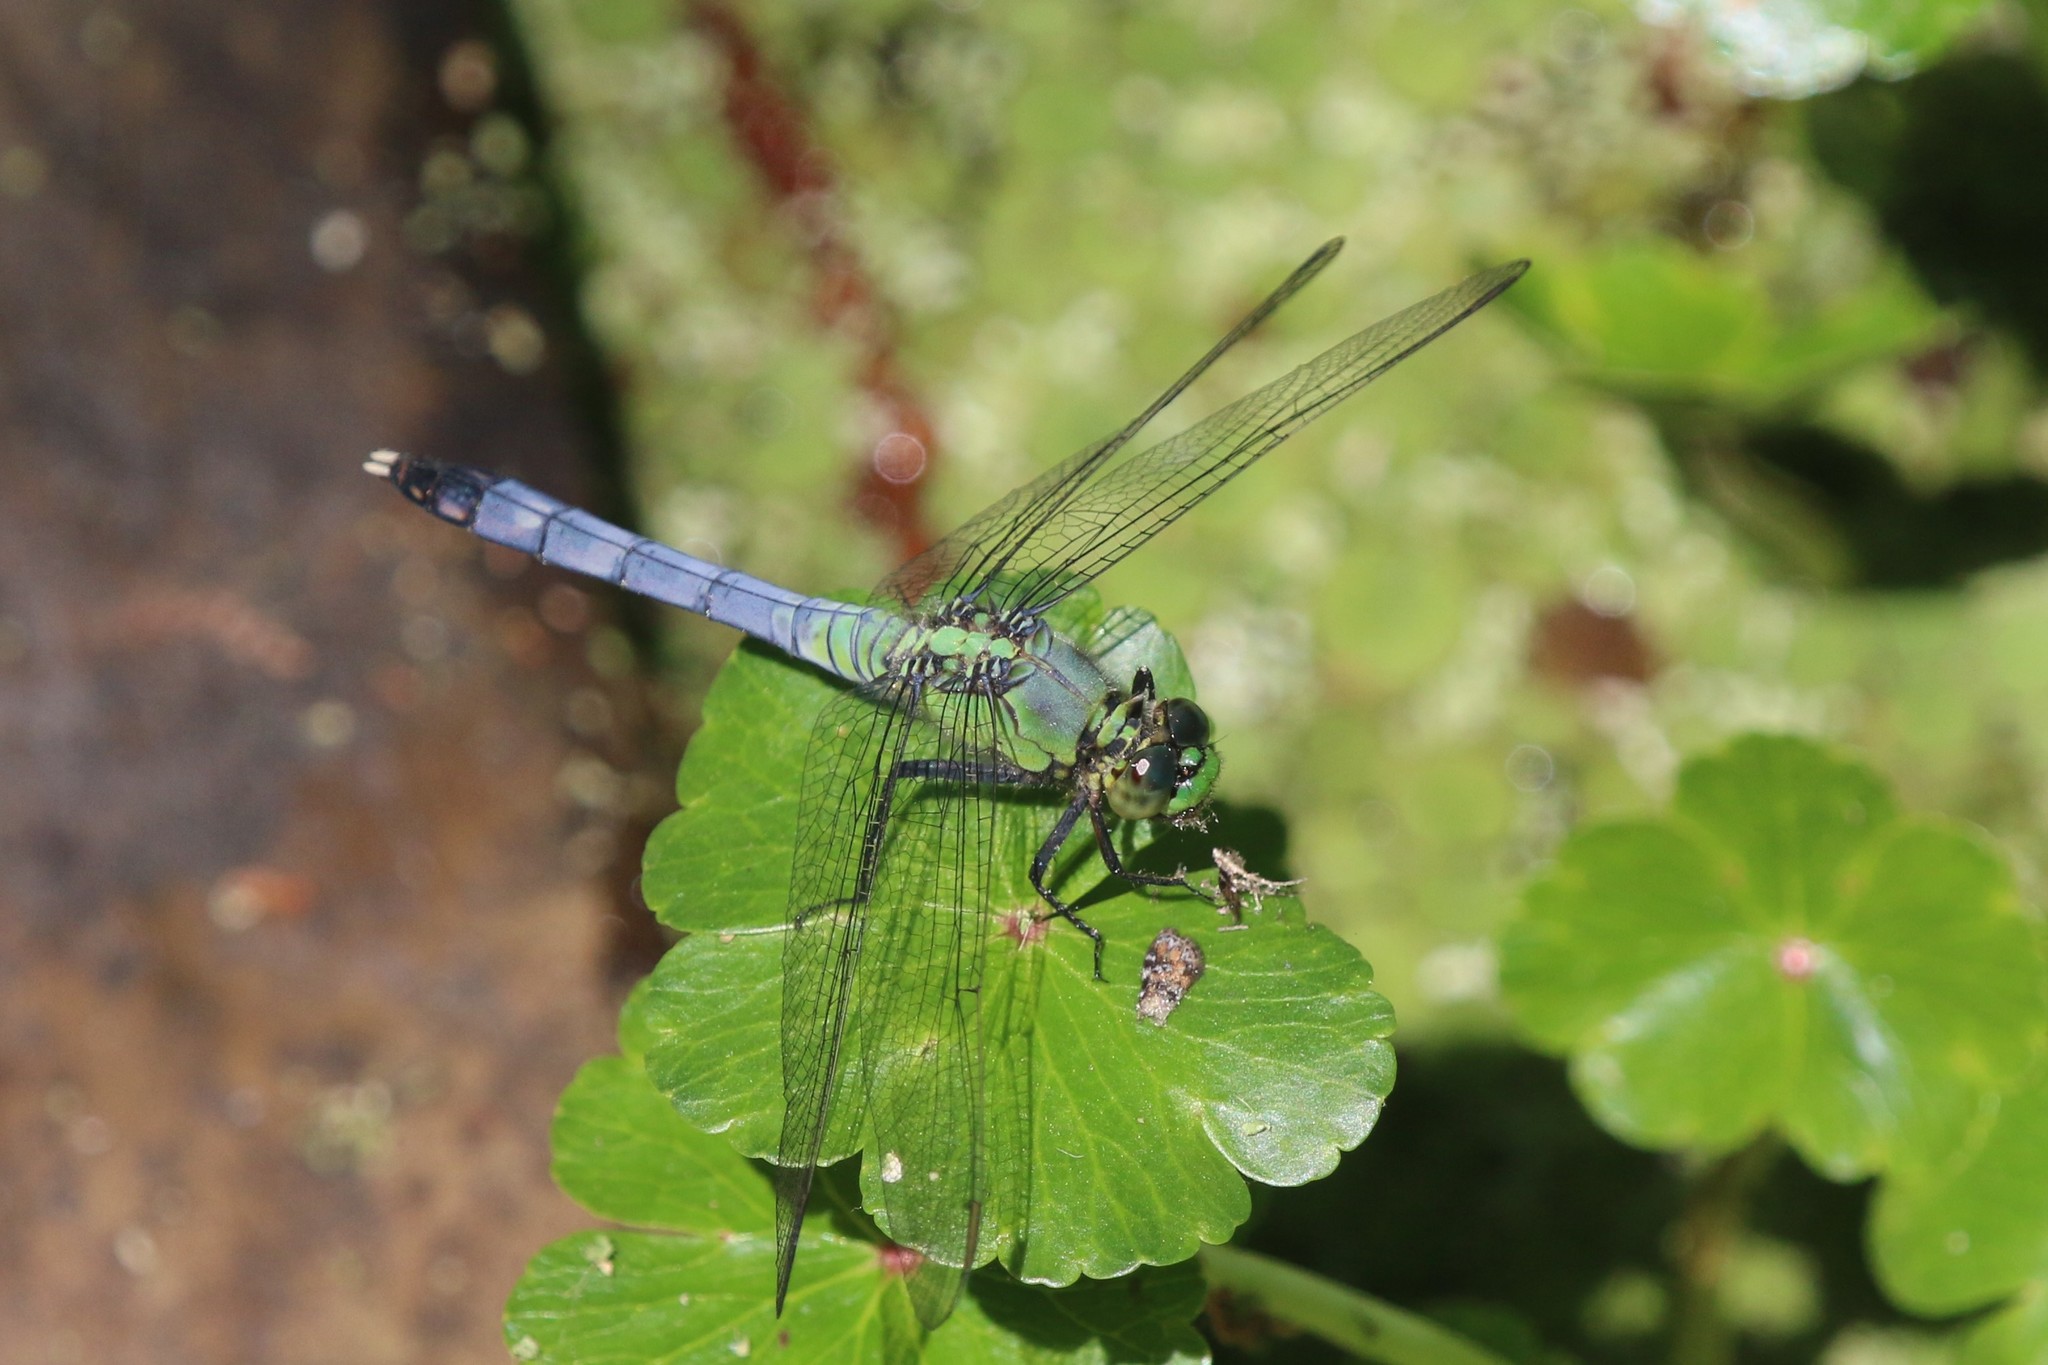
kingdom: Animalia
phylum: Arthropoda
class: Insecta
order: Odonata
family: Libellulidae
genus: Erythemis
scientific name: Erythemis simplicicollis
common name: Eastern pondhawk
